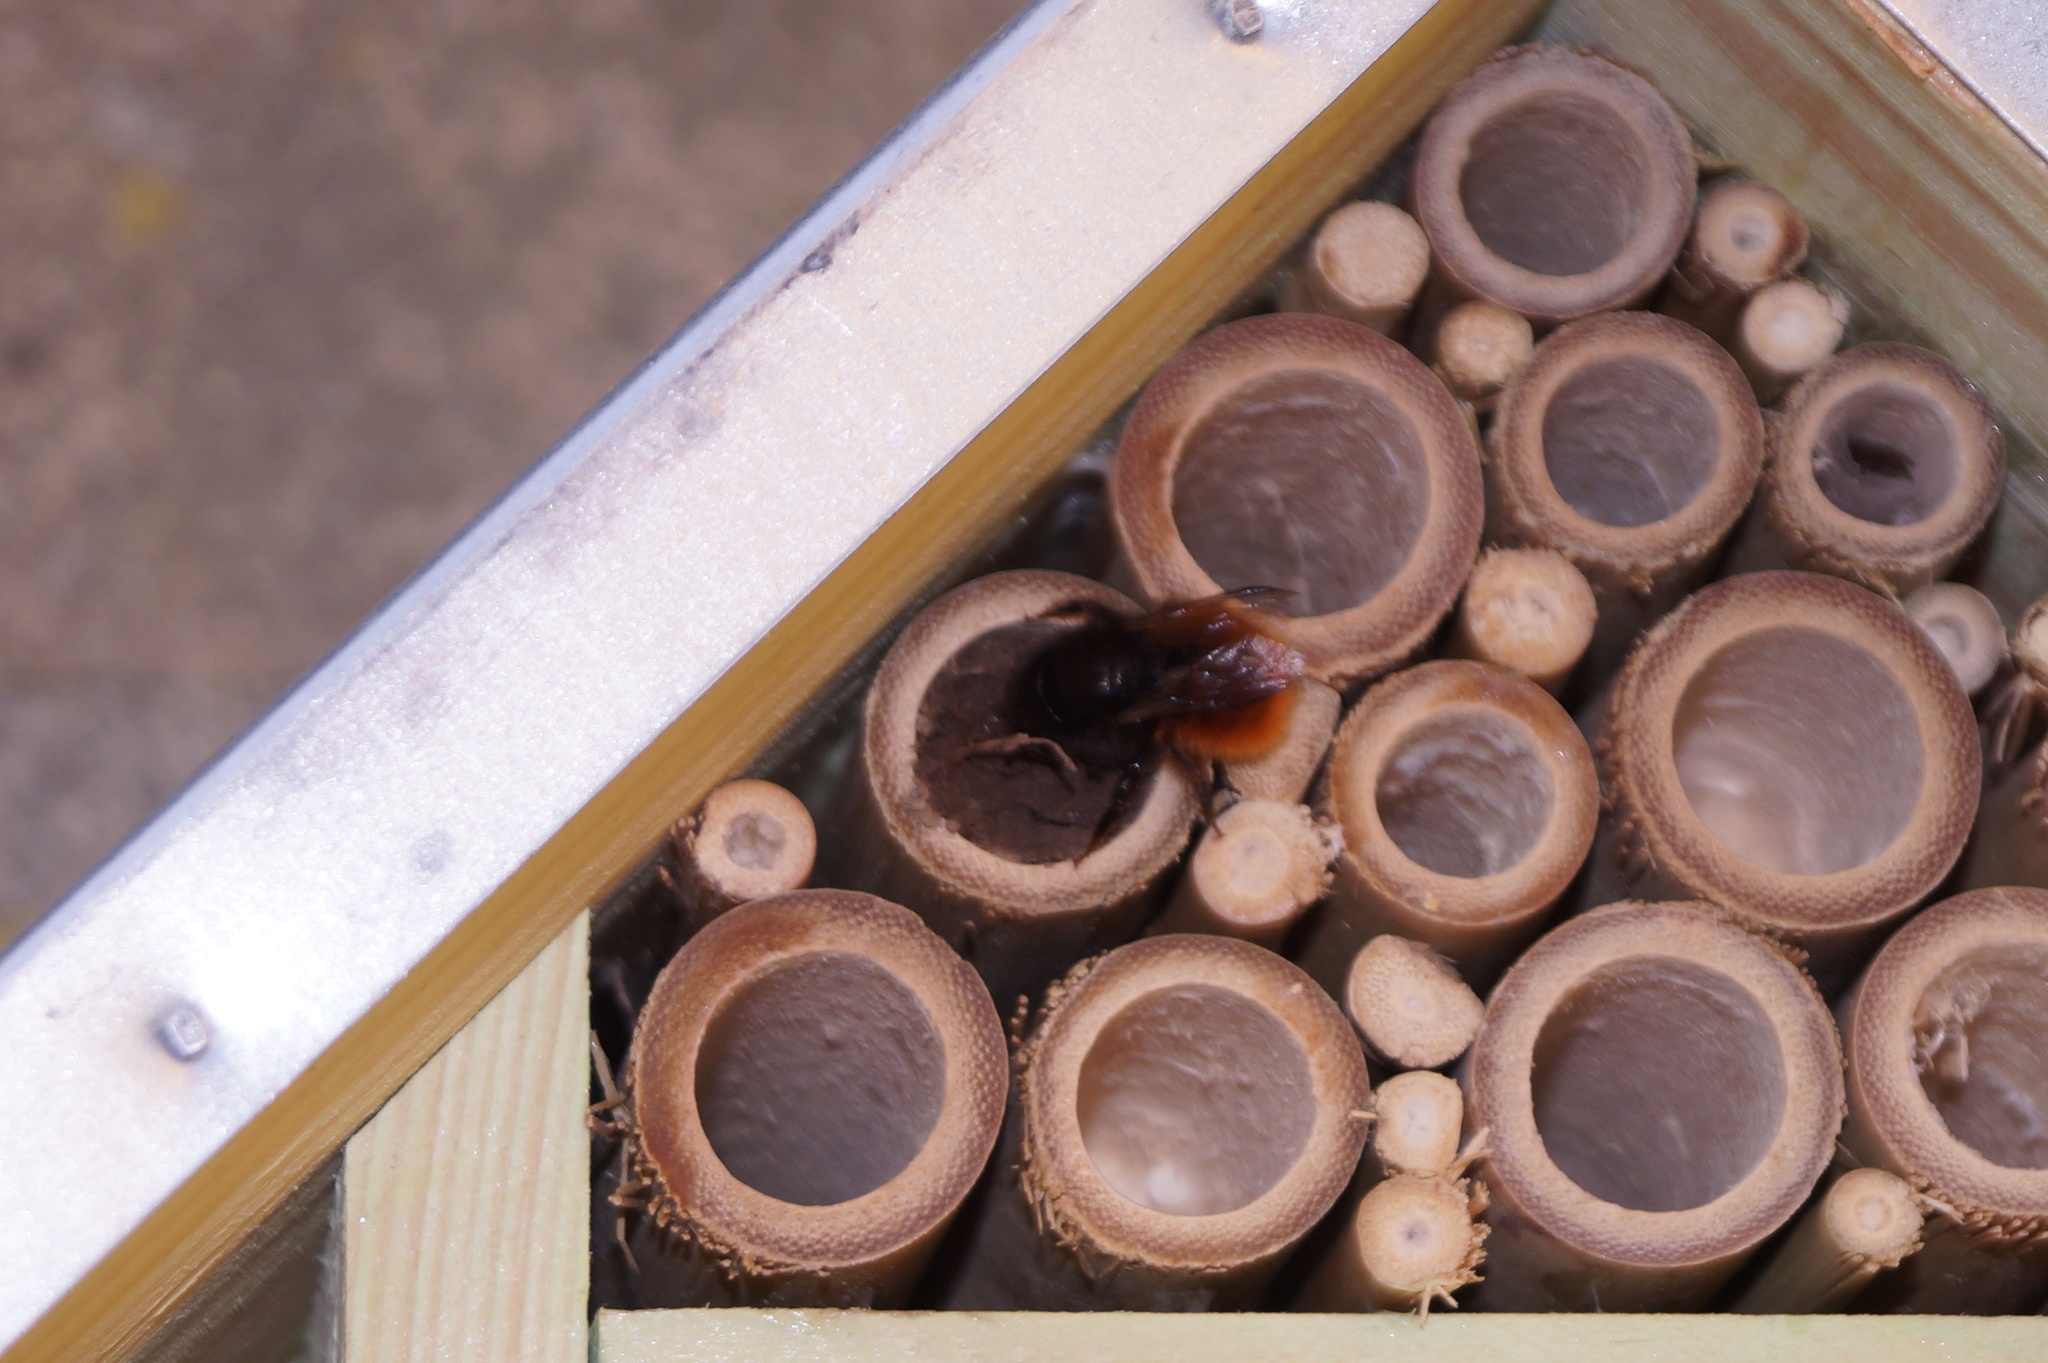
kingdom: Animalia
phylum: Arthropoda
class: Insecta
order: Hymenoptera
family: Megachilidae
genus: Osmia
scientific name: Osmia cornuta
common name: Mason bee
